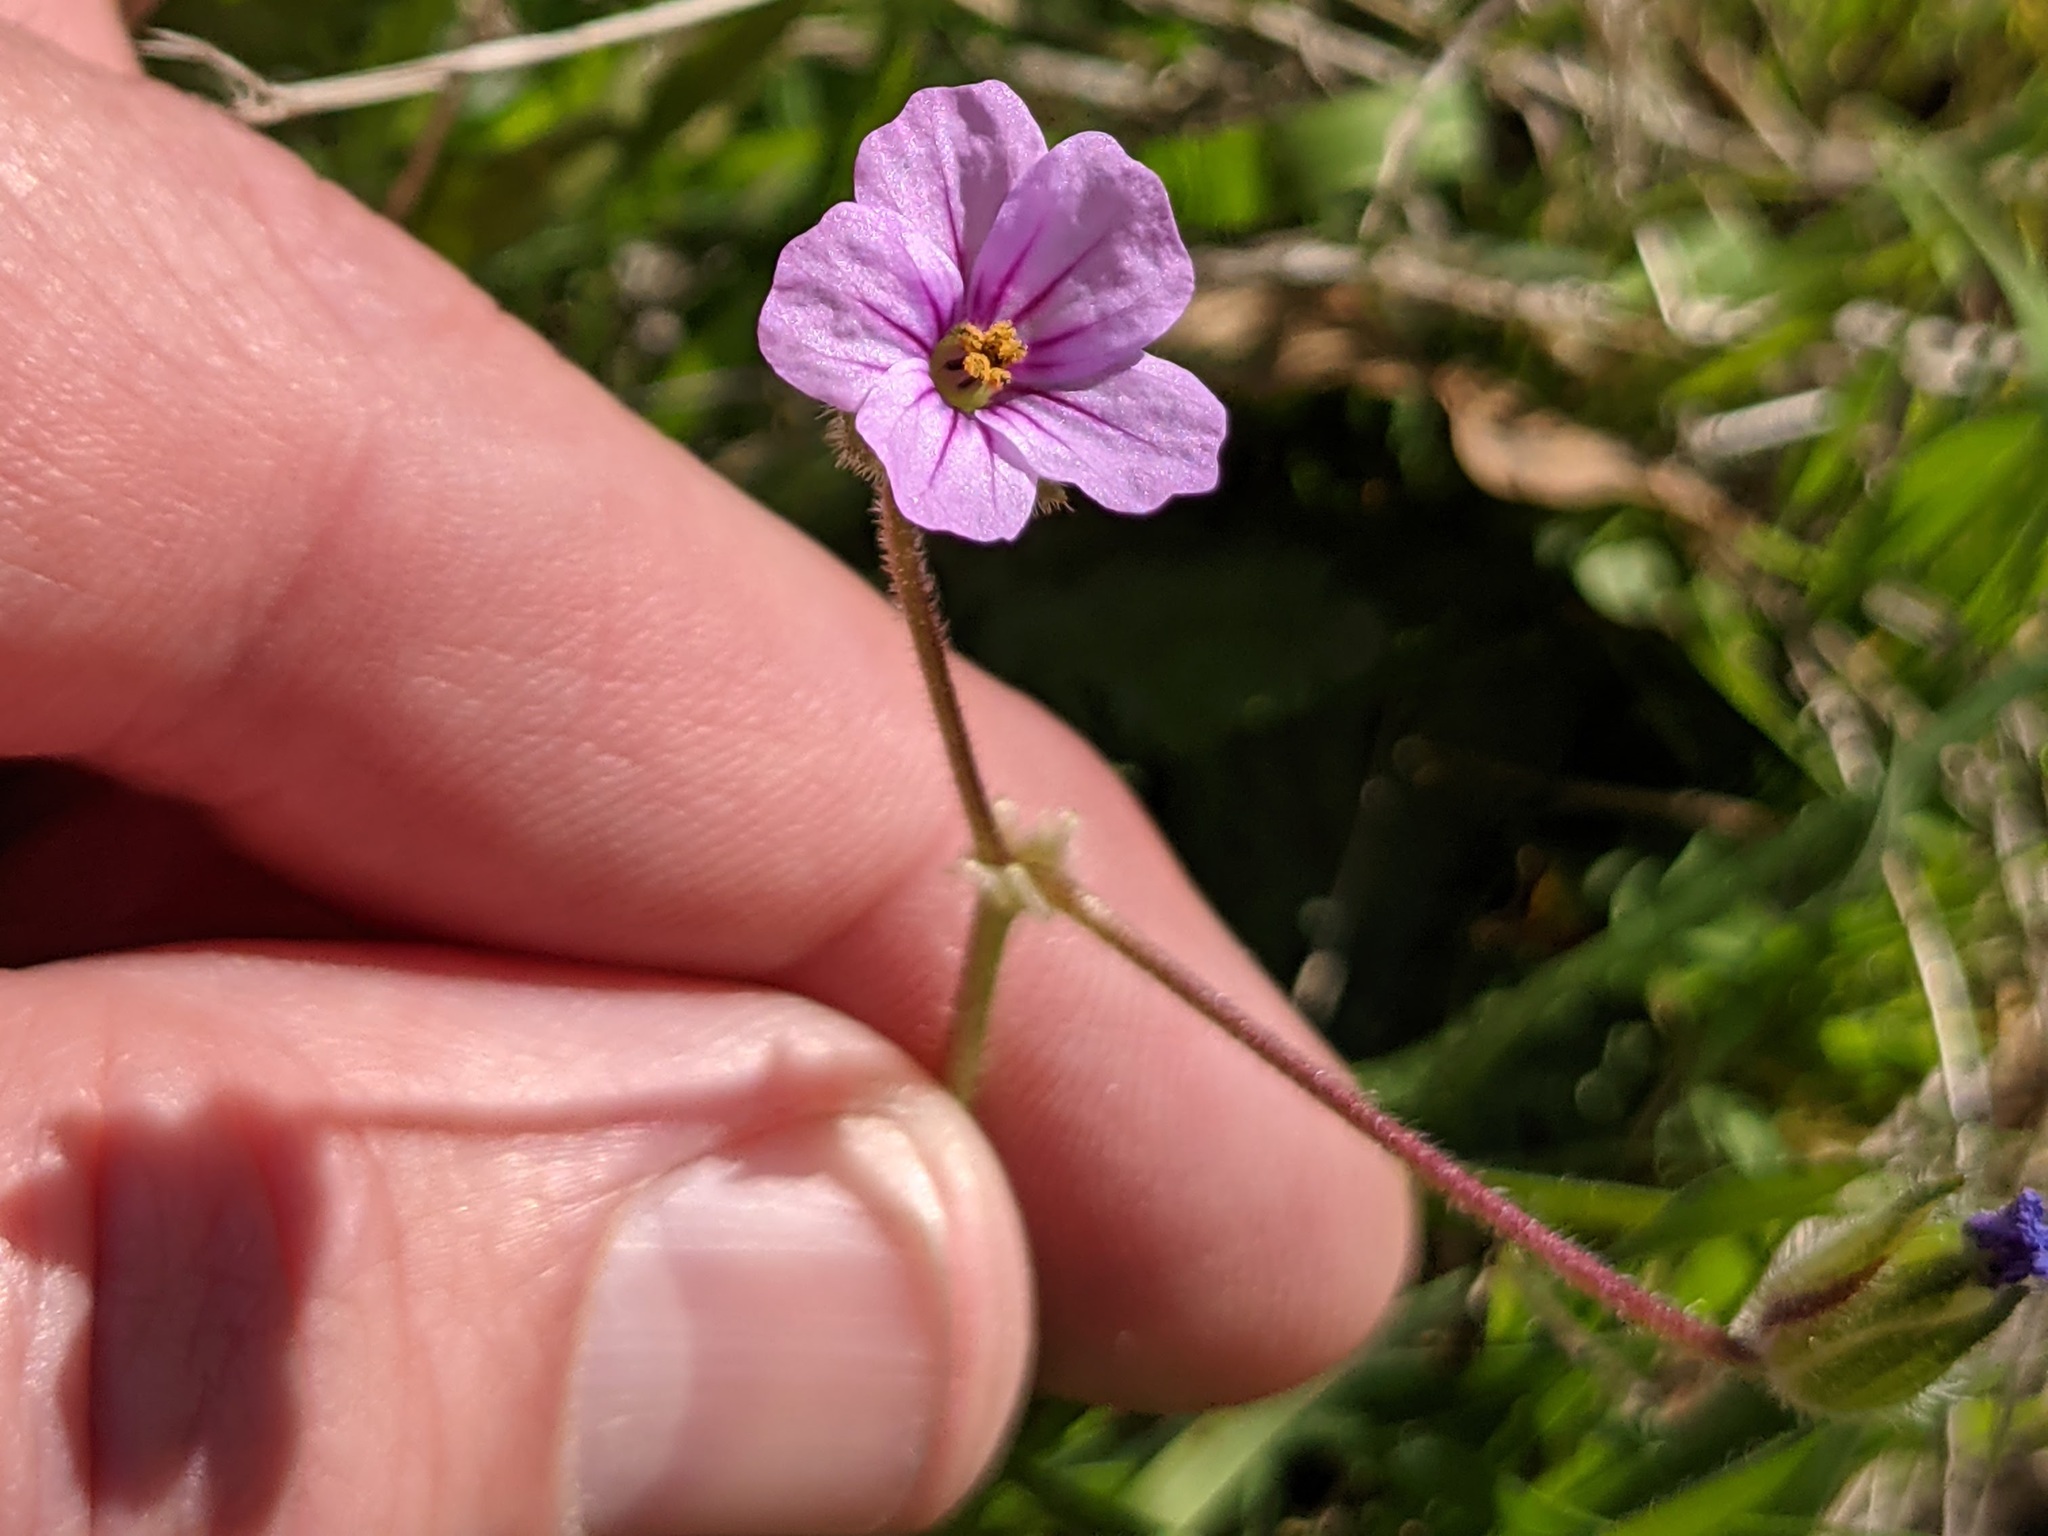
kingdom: Plantae
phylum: Tracheophyta
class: Magnoliopsida
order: Geraniales
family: Geraniaceae
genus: Erodium
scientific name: Erodium botrys
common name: Mediterranean stork's-bill
